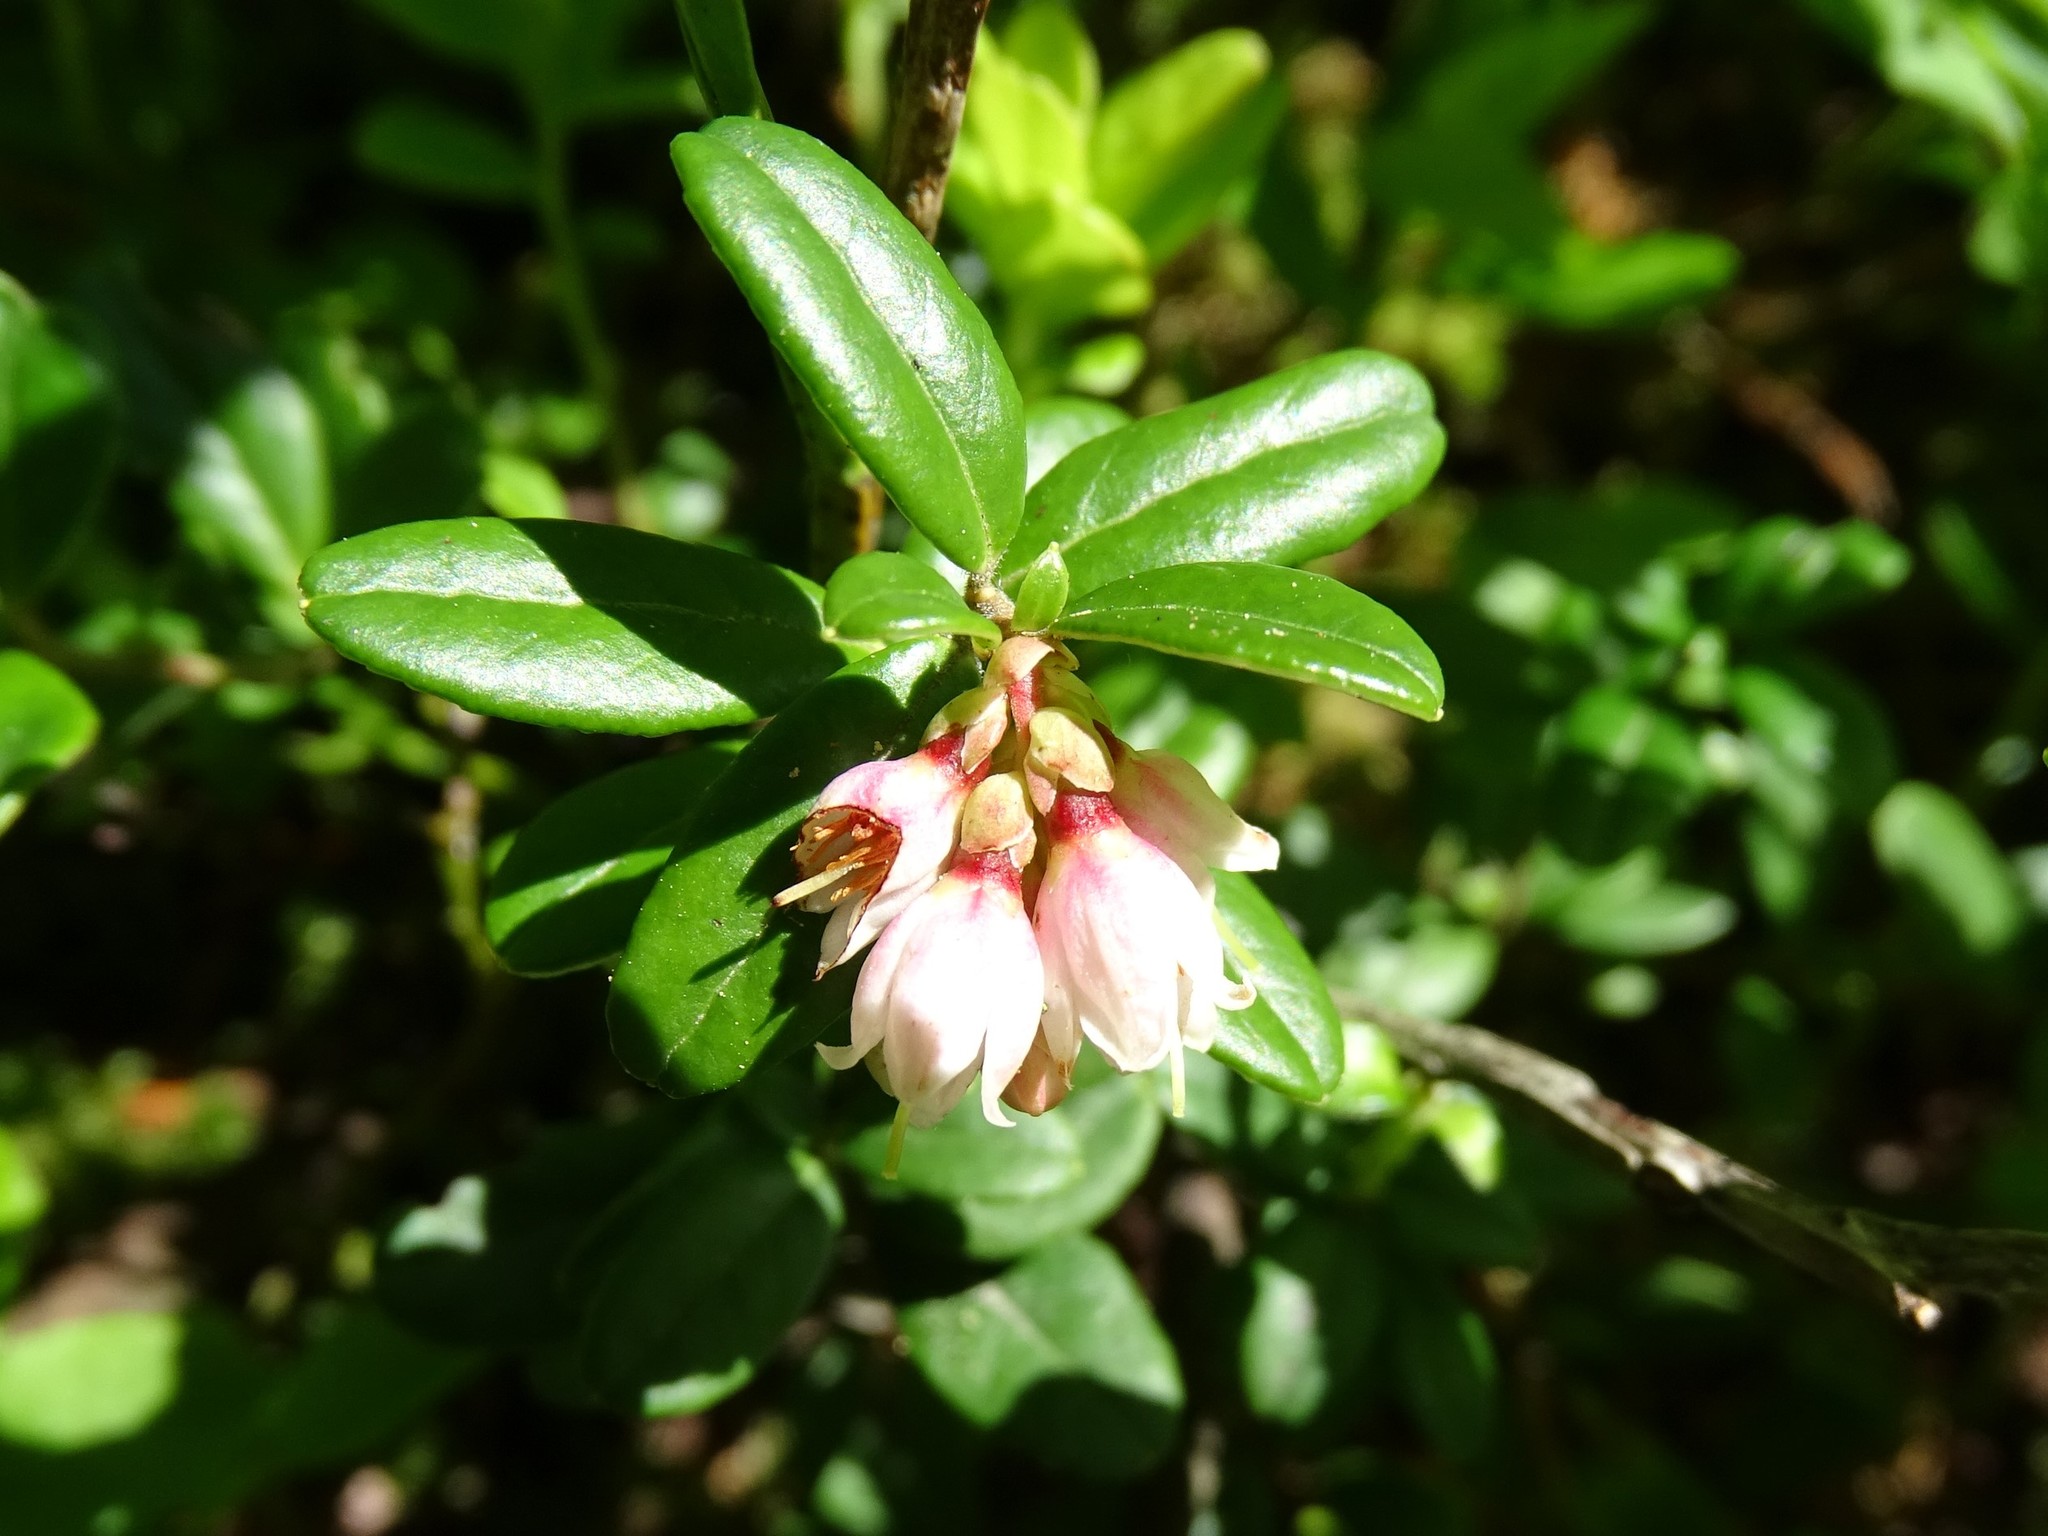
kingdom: Plantae
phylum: Tracheophyta
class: Magnoliopsida
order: Ericales
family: Ericaceae
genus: Vaccinium
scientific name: Vaccinium vitis-idaea
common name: Cowberry
